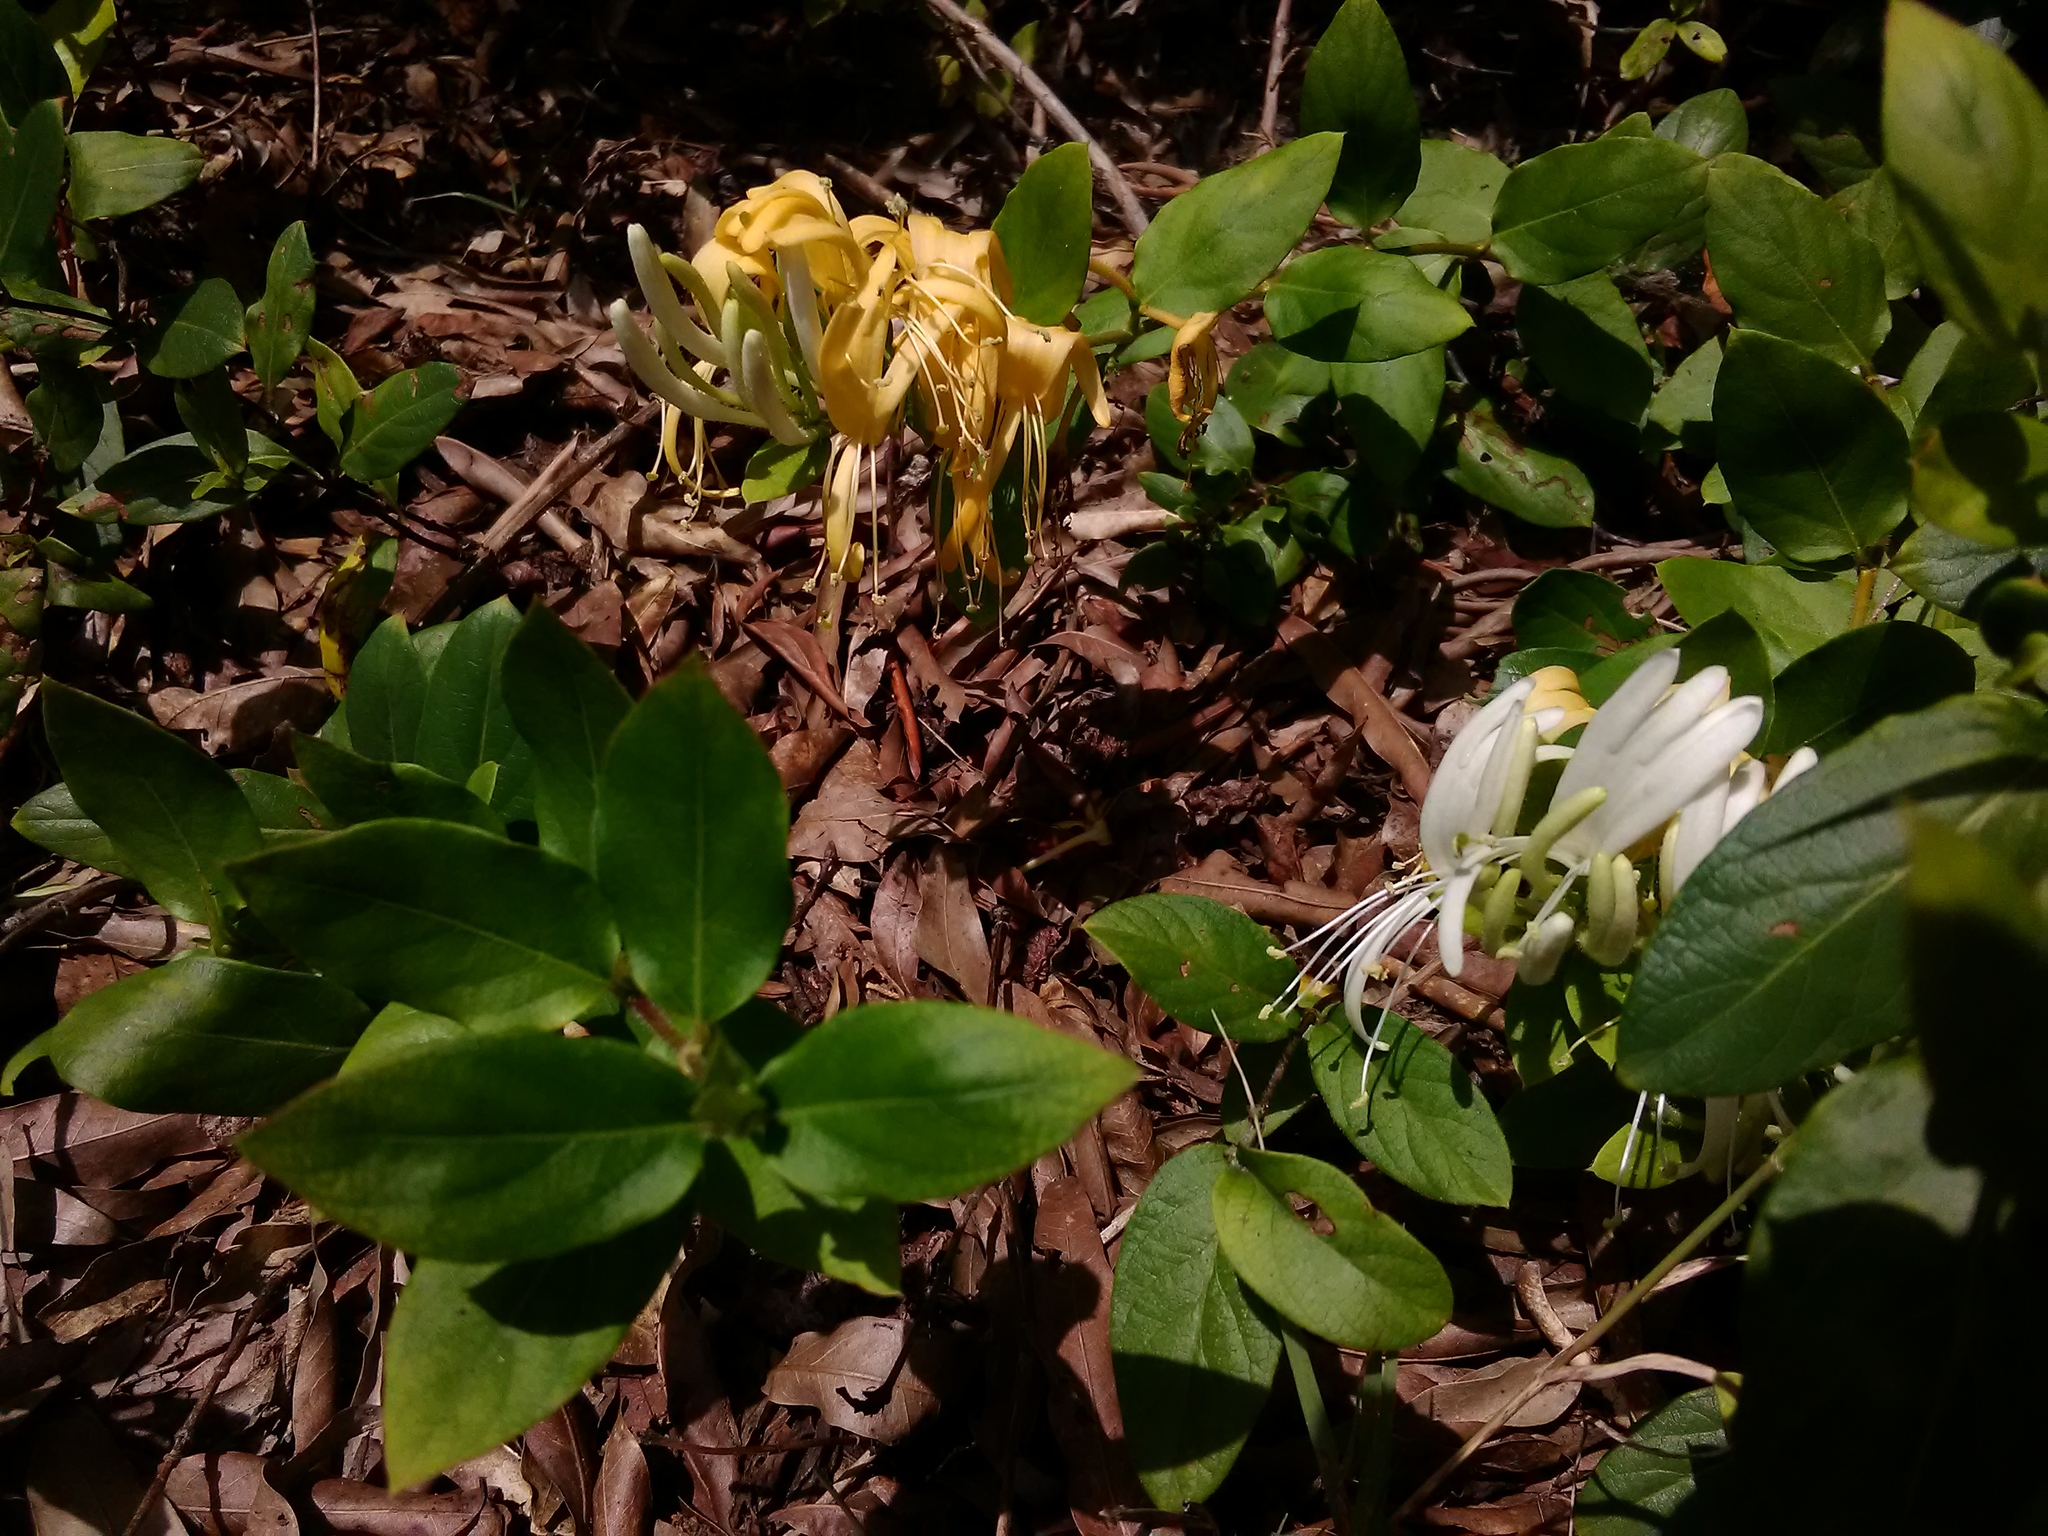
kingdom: Plantae
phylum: Tracheophyta
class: Magnoliopsida
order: Dipsacales
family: Caprifoliaceae
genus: Lonicera
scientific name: Lonicera japonica
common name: Japanese honeysuckle
